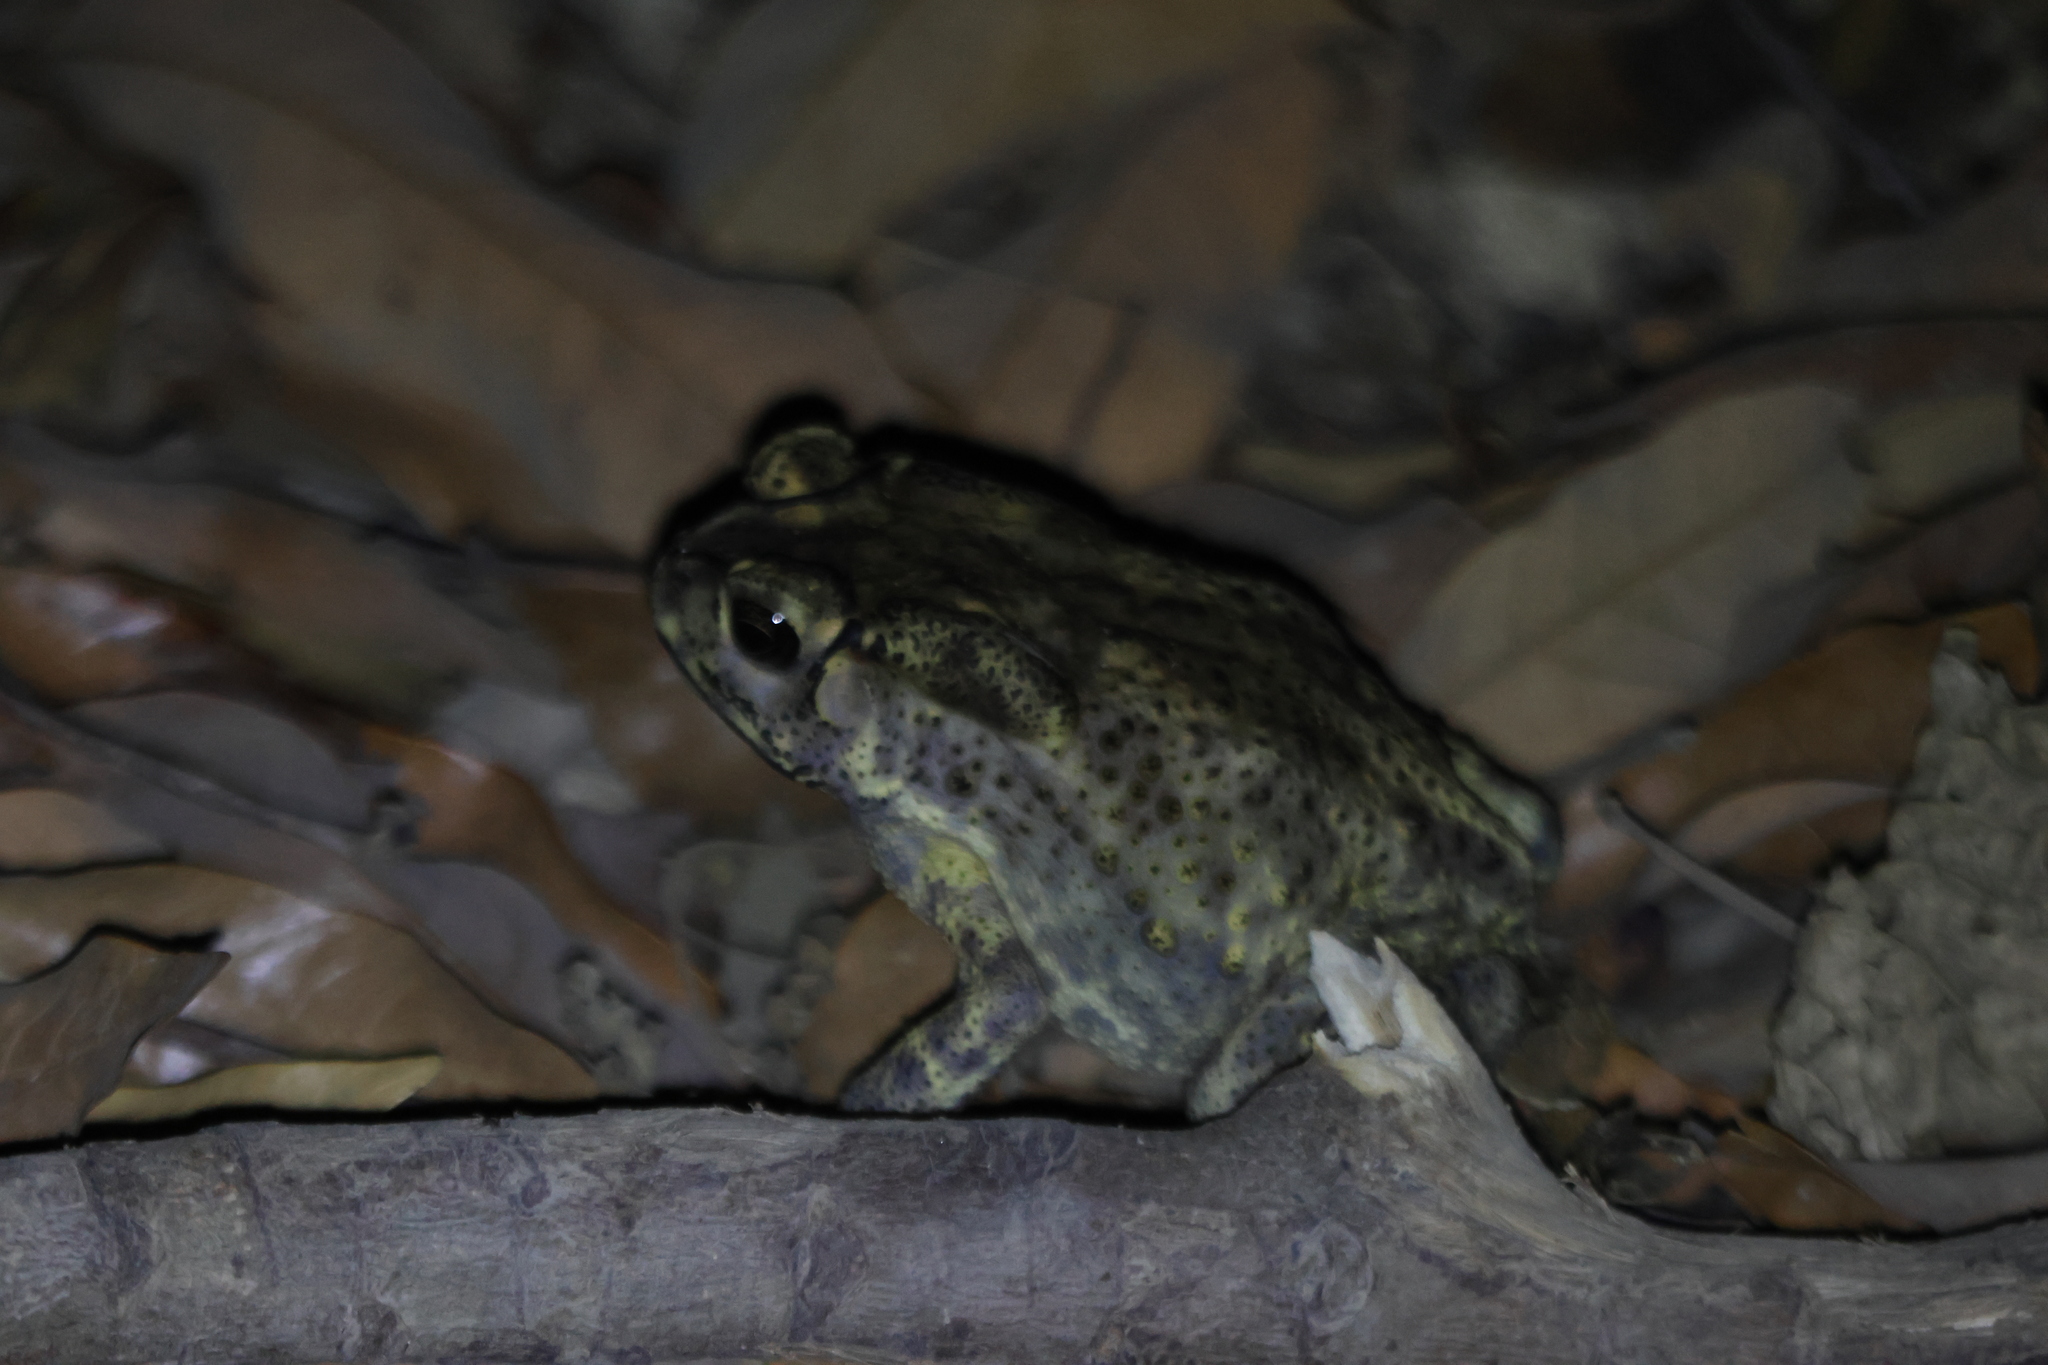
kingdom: Animalia
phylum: Chordata
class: Amphibia
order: Anura
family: Bufonidae
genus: Duttaphrynus
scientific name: Duttaphrynus melanostictus
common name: Common sunda toad
